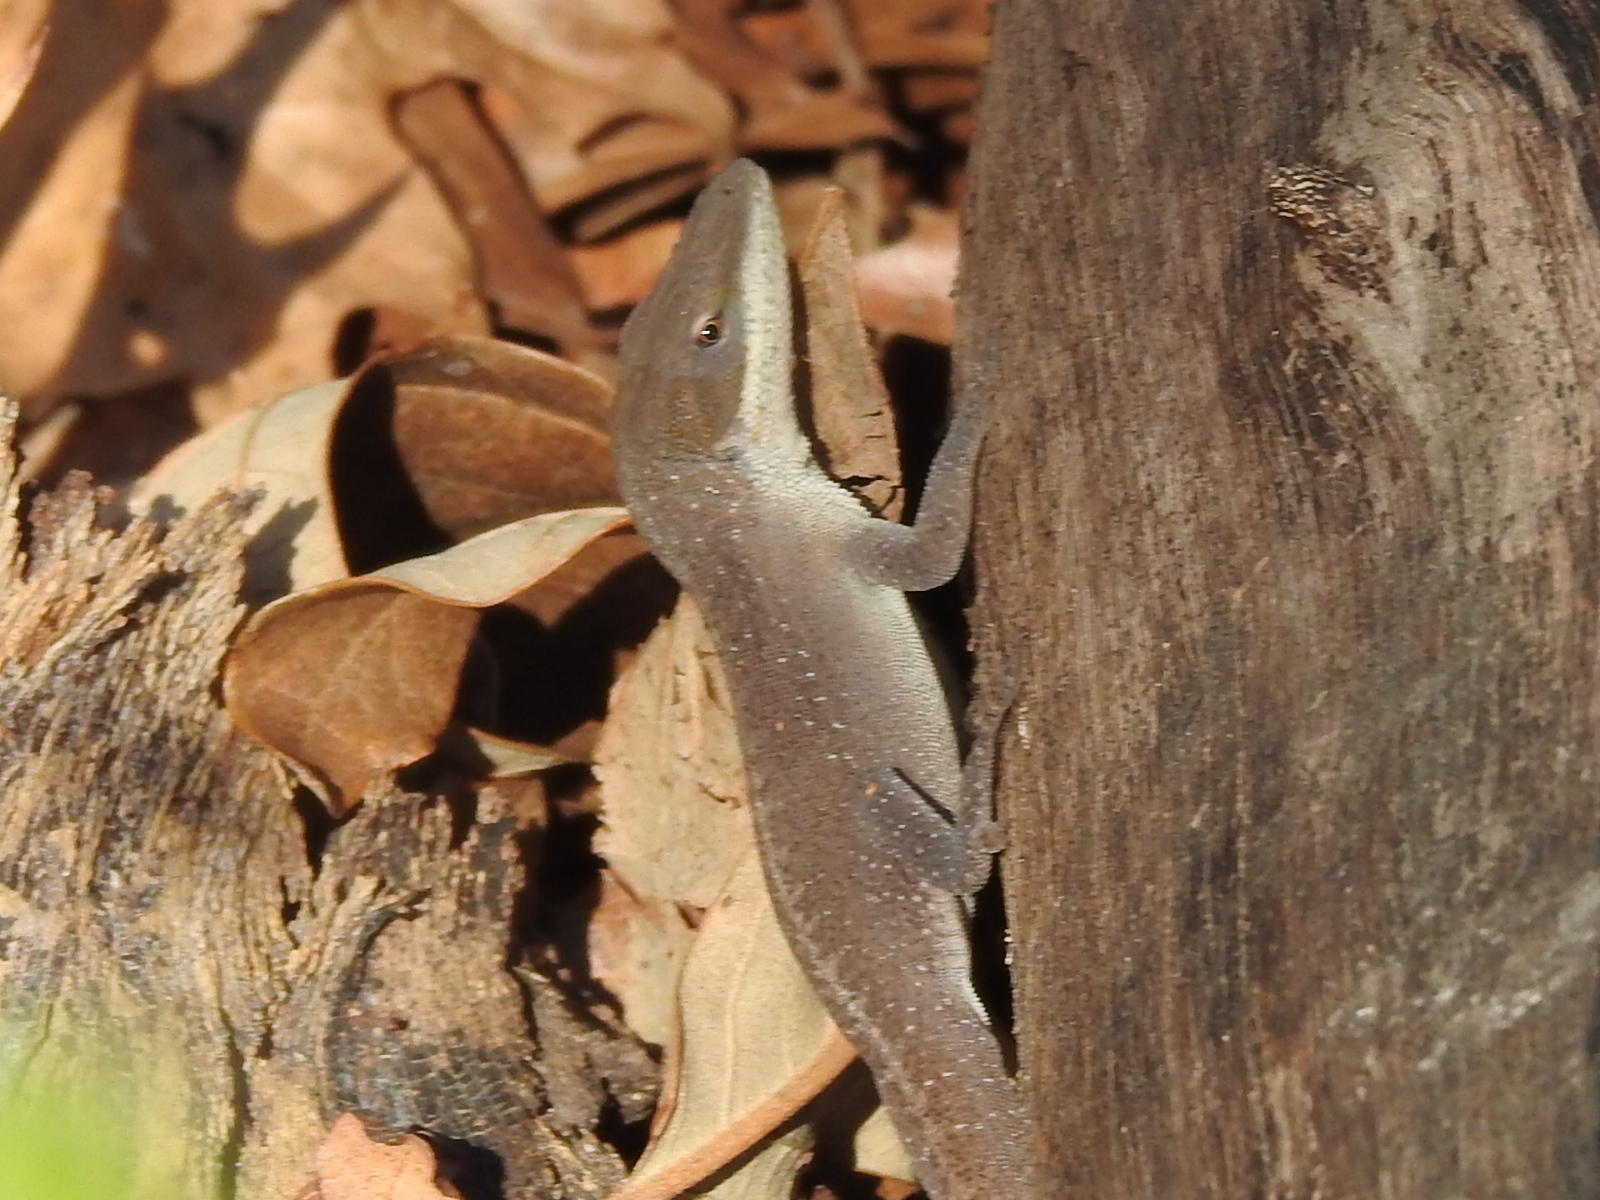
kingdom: Animalia
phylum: Chordata
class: Squamata
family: Dactyloidae
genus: Anolis
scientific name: Anolis carolinensis
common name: Green anole
